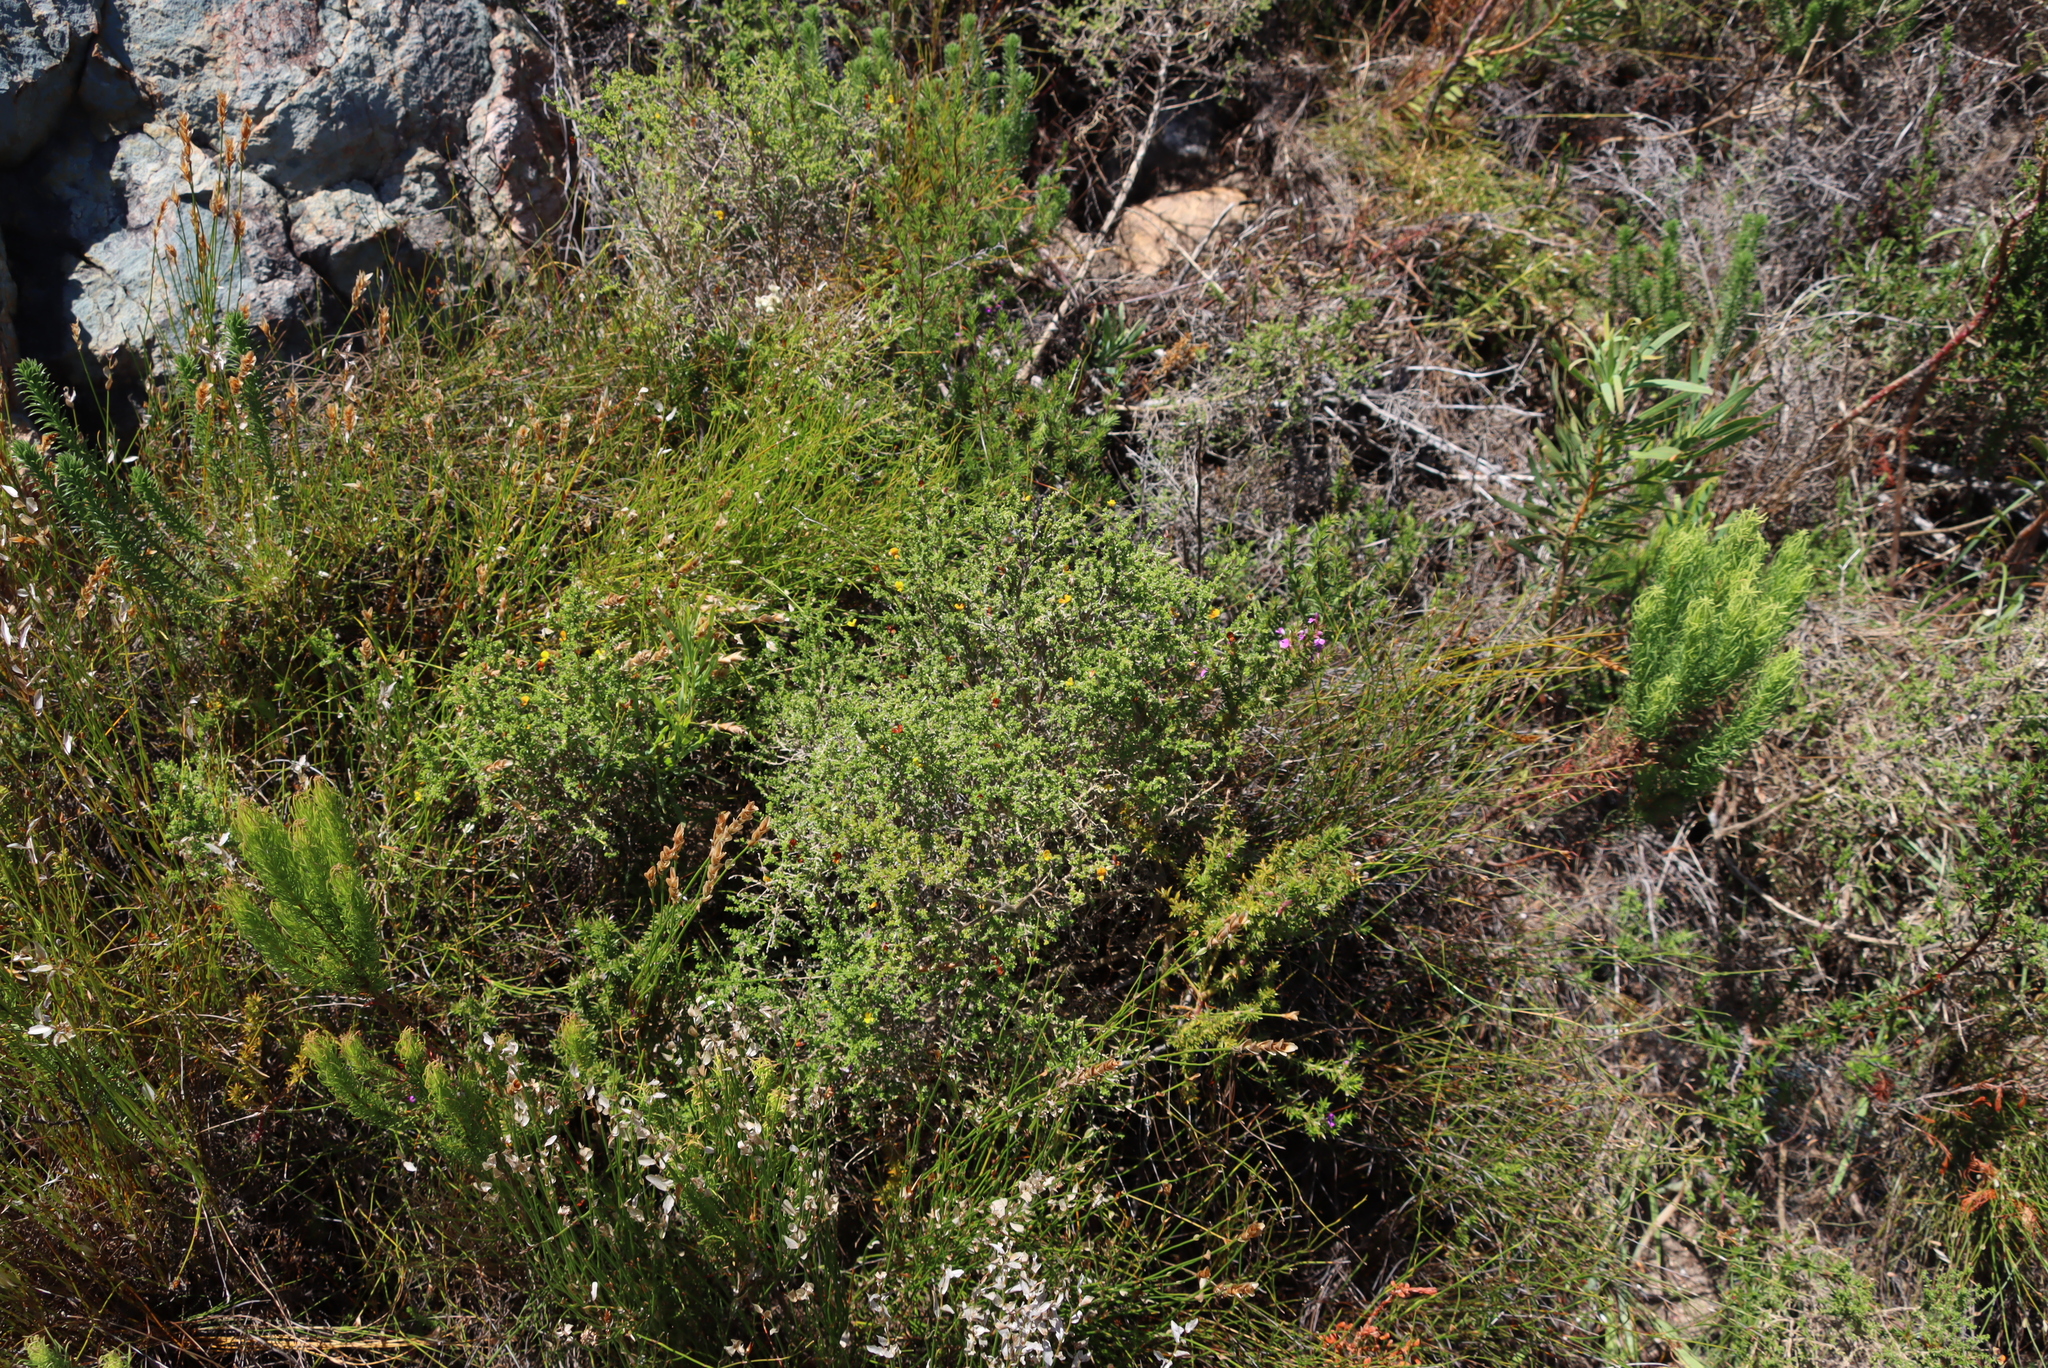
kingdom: Plantae
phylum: Tracheophyta
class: Magnoliopsida
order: Fabales
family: Polygalaceae
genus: Muraltia
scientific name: Muraltia heisteria
